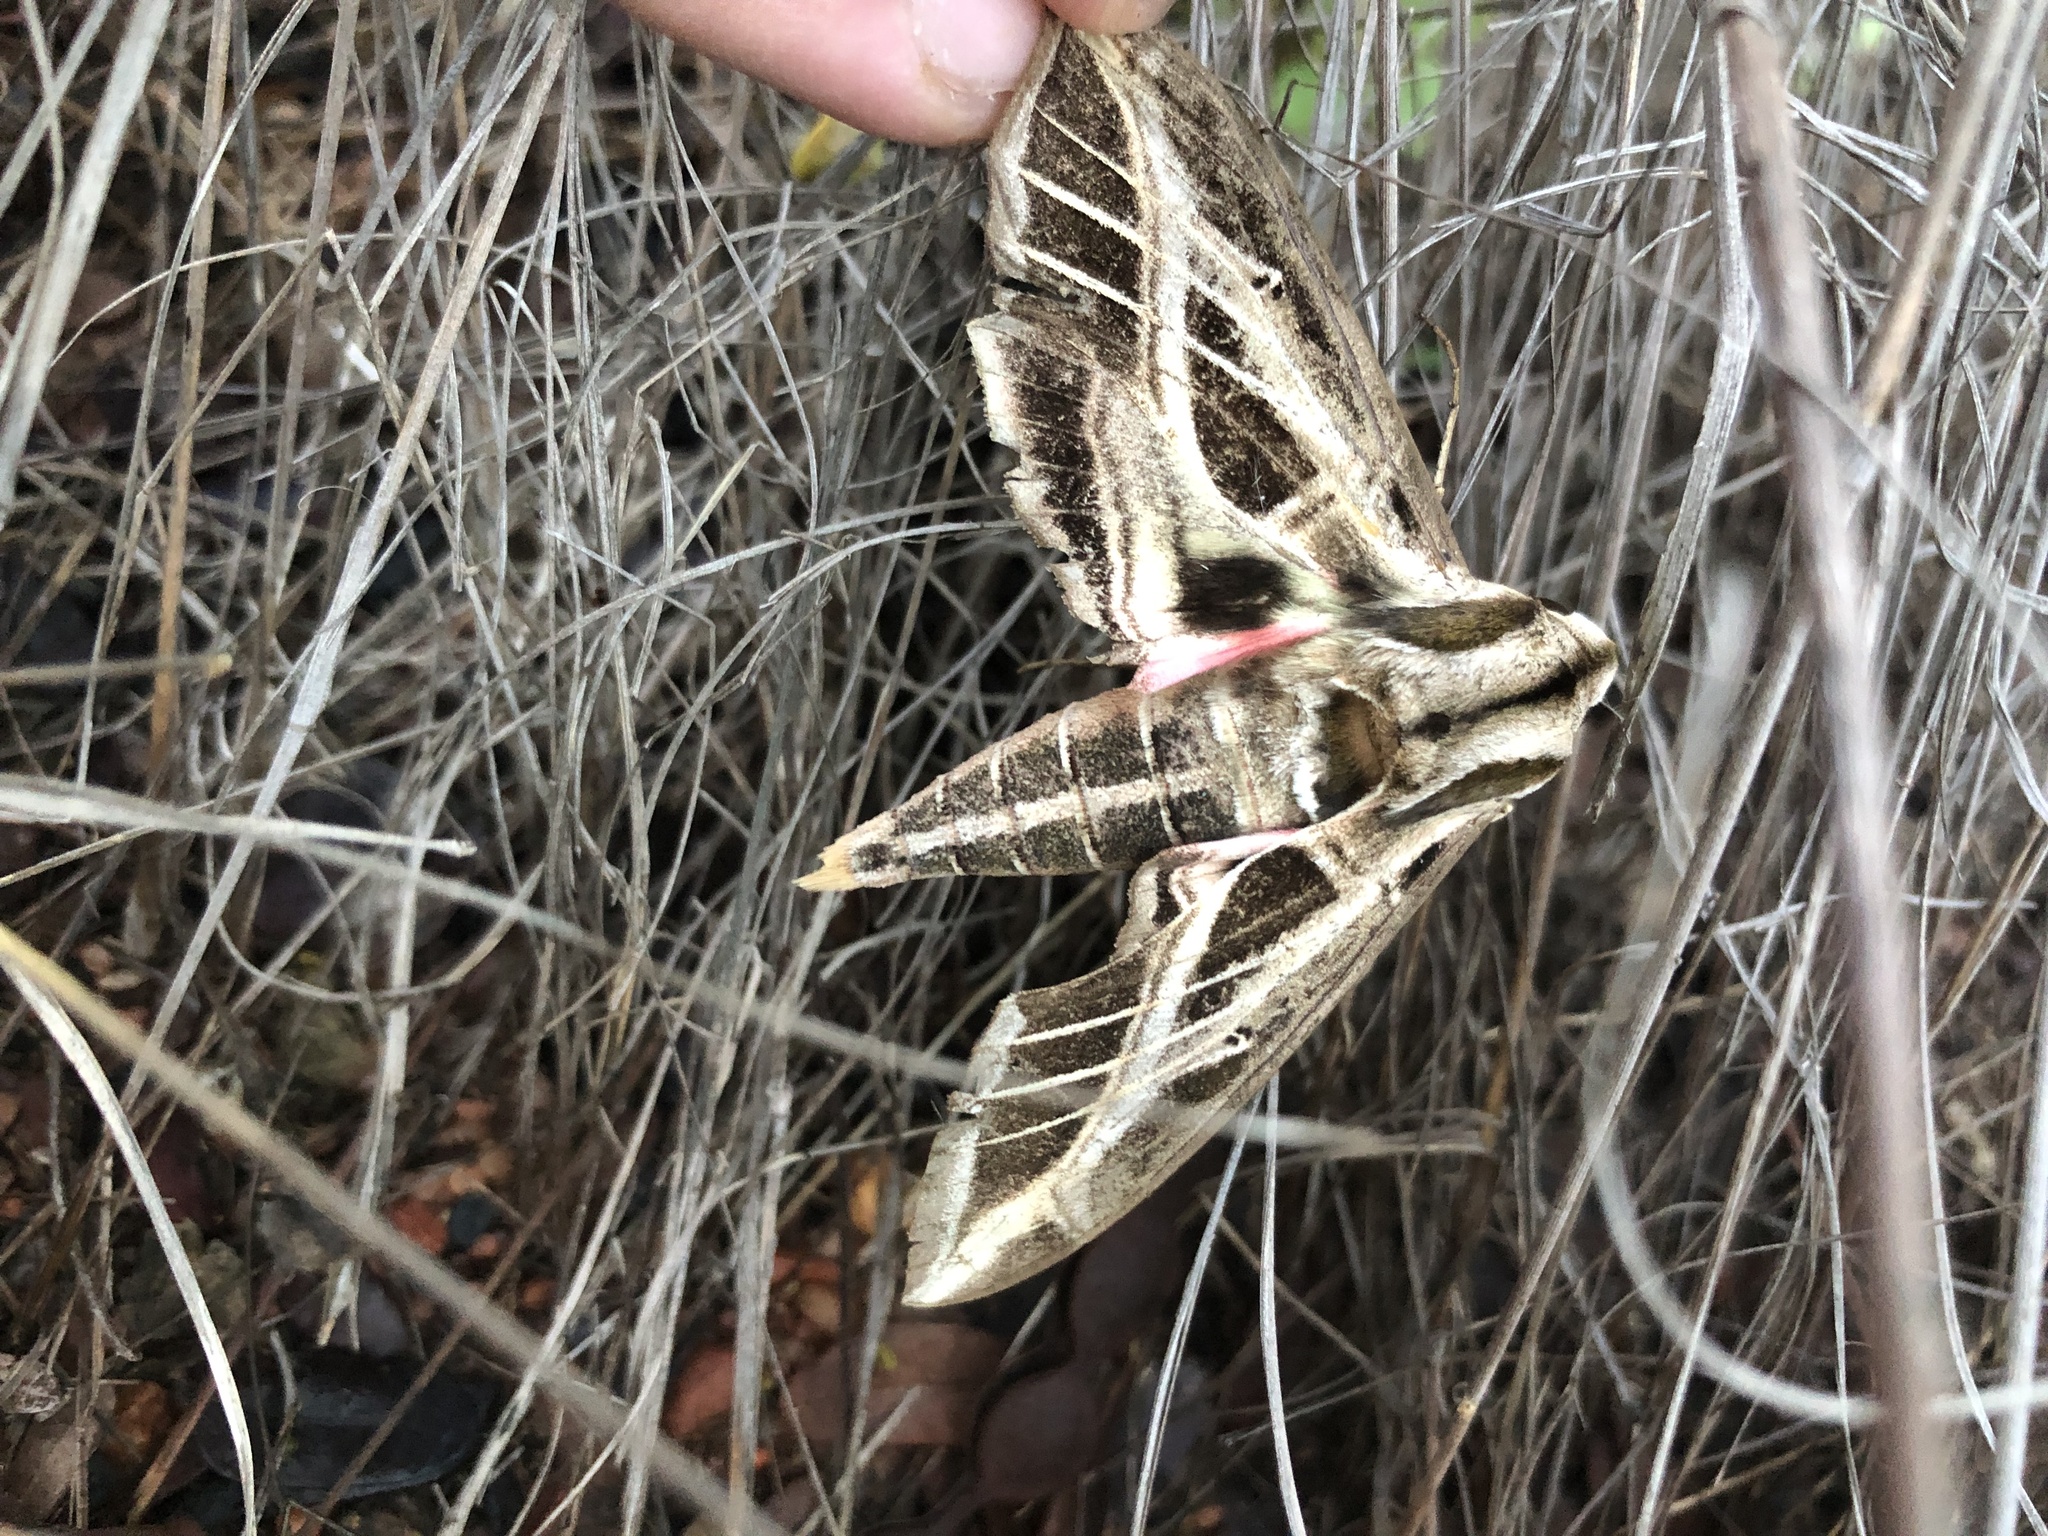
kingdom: Animalia
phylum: Arthropoda
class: Insecta
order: Lepidoptera
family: Sphingidae
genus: Eumorpha
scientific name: Eumorpha vitis
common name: Vine sphinx
